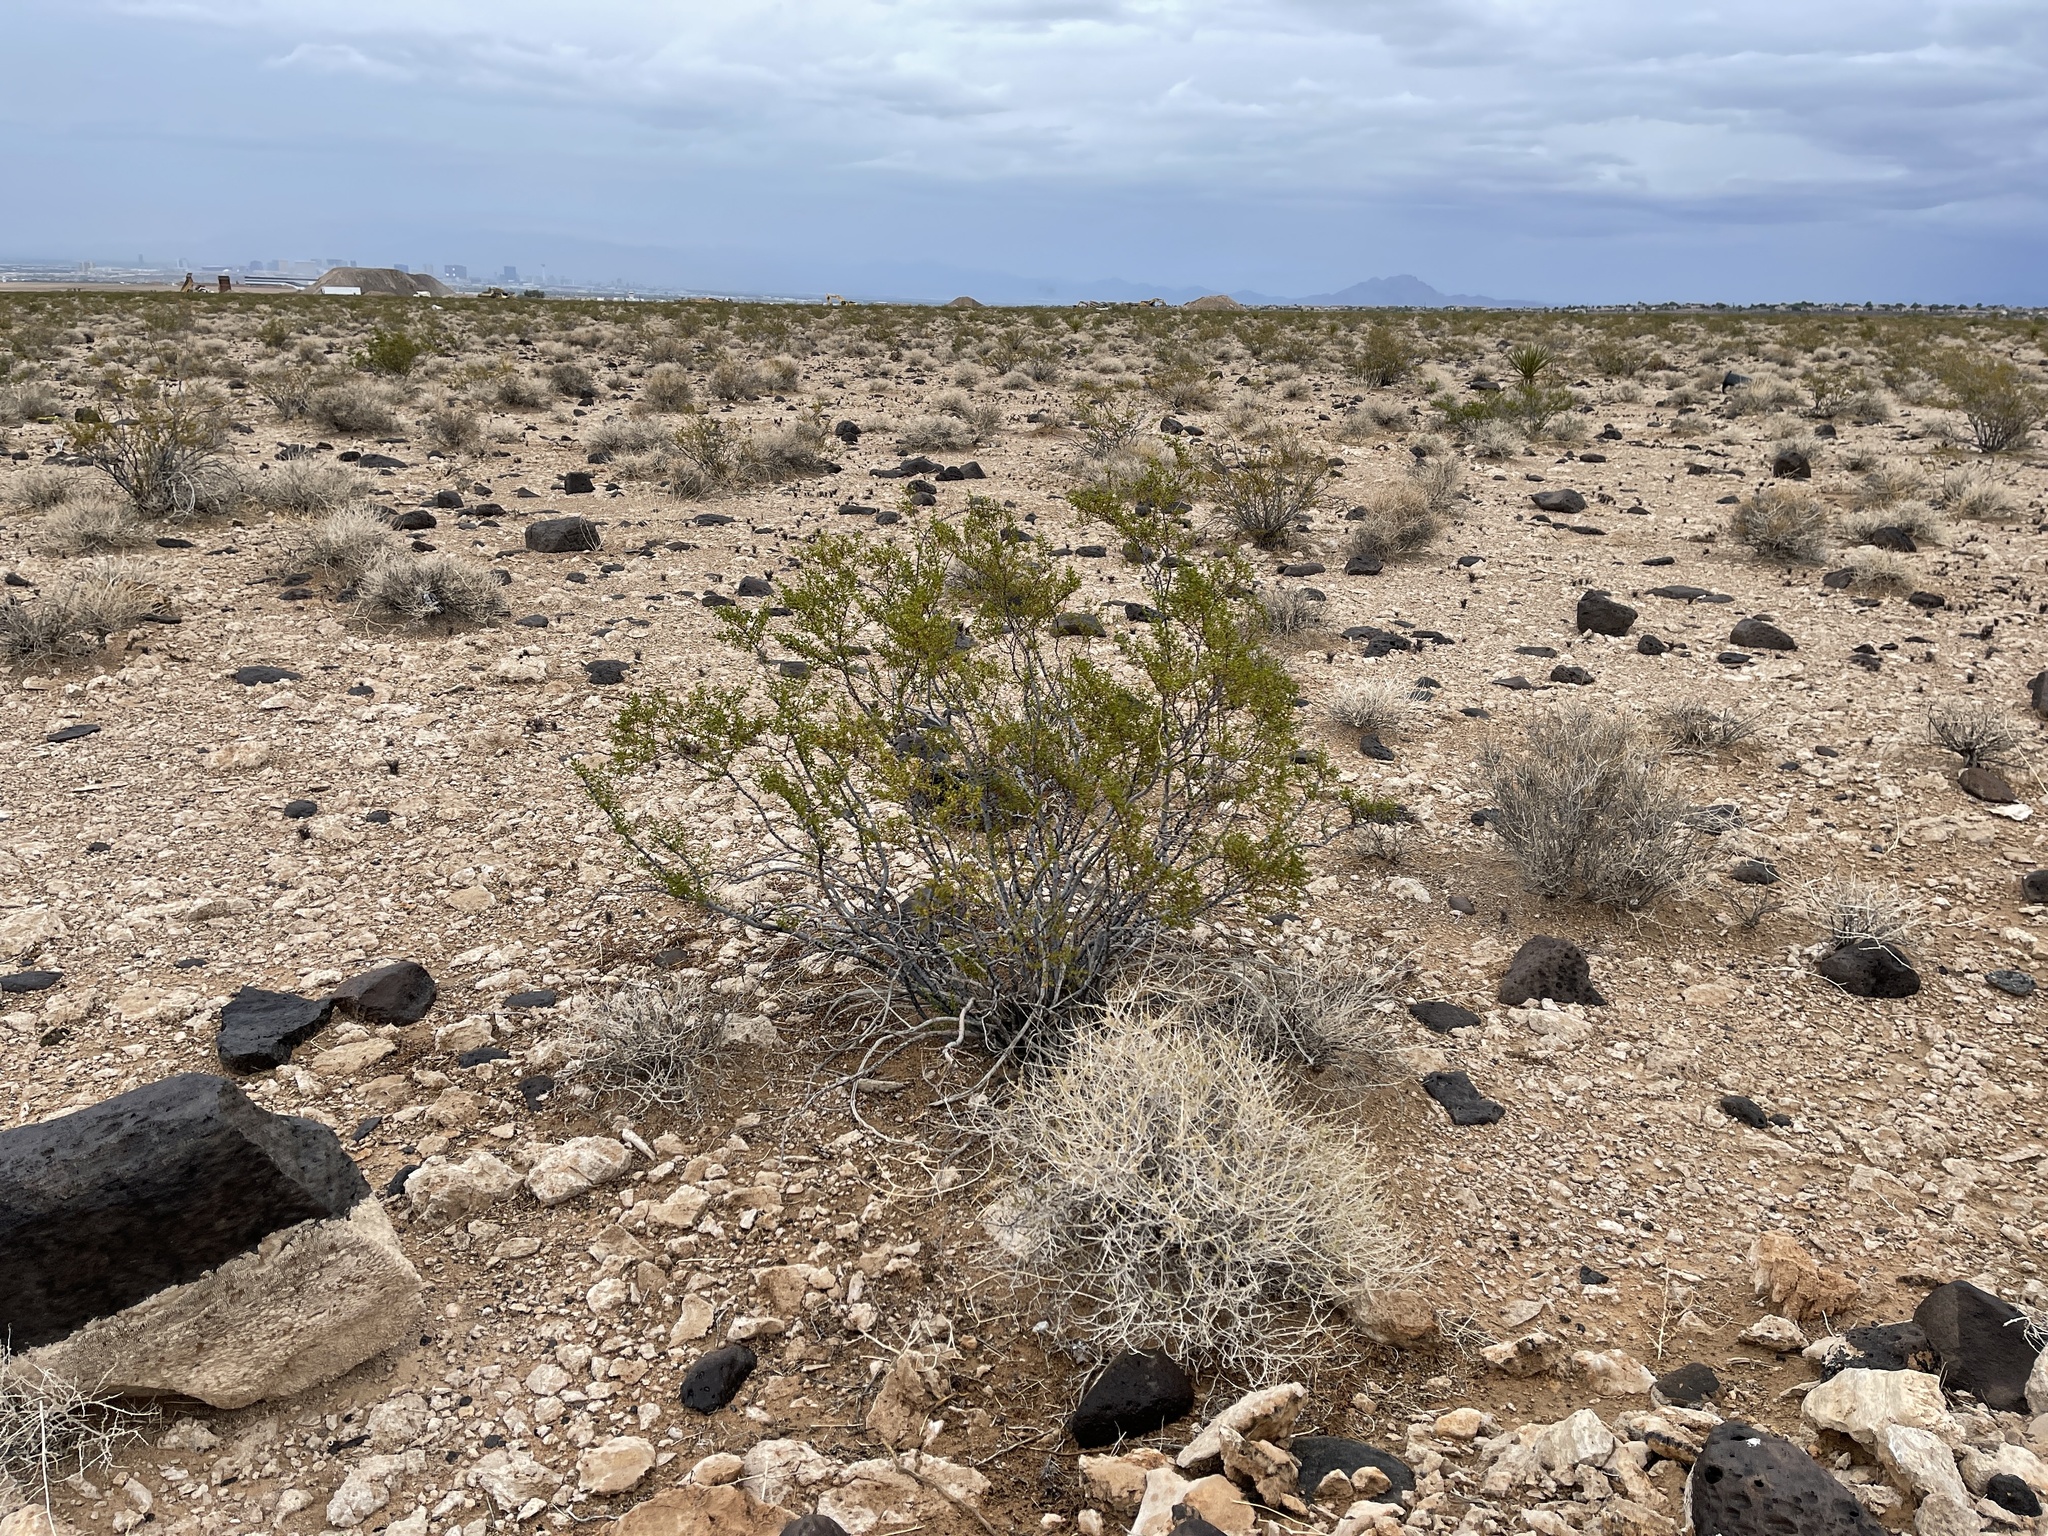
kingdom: Plantae
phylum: Tracheophyta
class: Magnoliopsida
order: Zygophyllales
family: Zygophyllaceae
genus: Larrea
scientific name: Larrea tridentata
